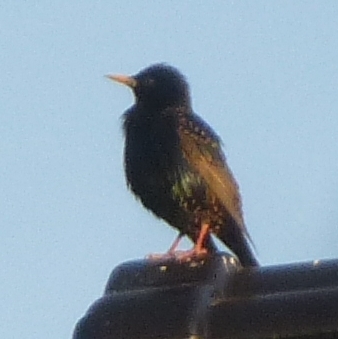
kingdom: Animalia
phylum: Chordata
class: Aves
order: Passeriformes
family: Sturnidae
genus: Sturnus
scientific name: Sturnus vulgaris
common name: Common starling
